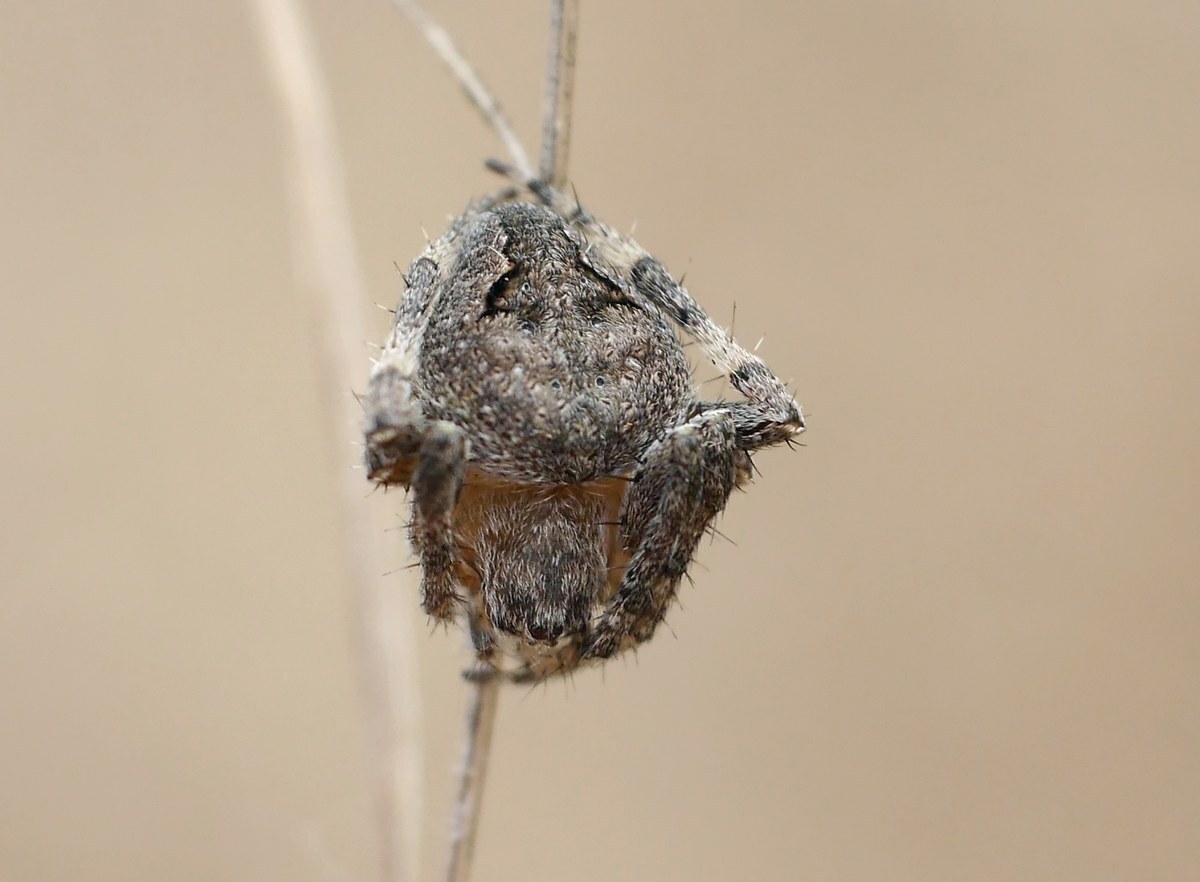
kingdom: Animalia
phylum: Arthropoda
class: Arachnida
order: Araneae
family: Araneidae
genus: Neoscona
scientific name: Neoscona subfusca
